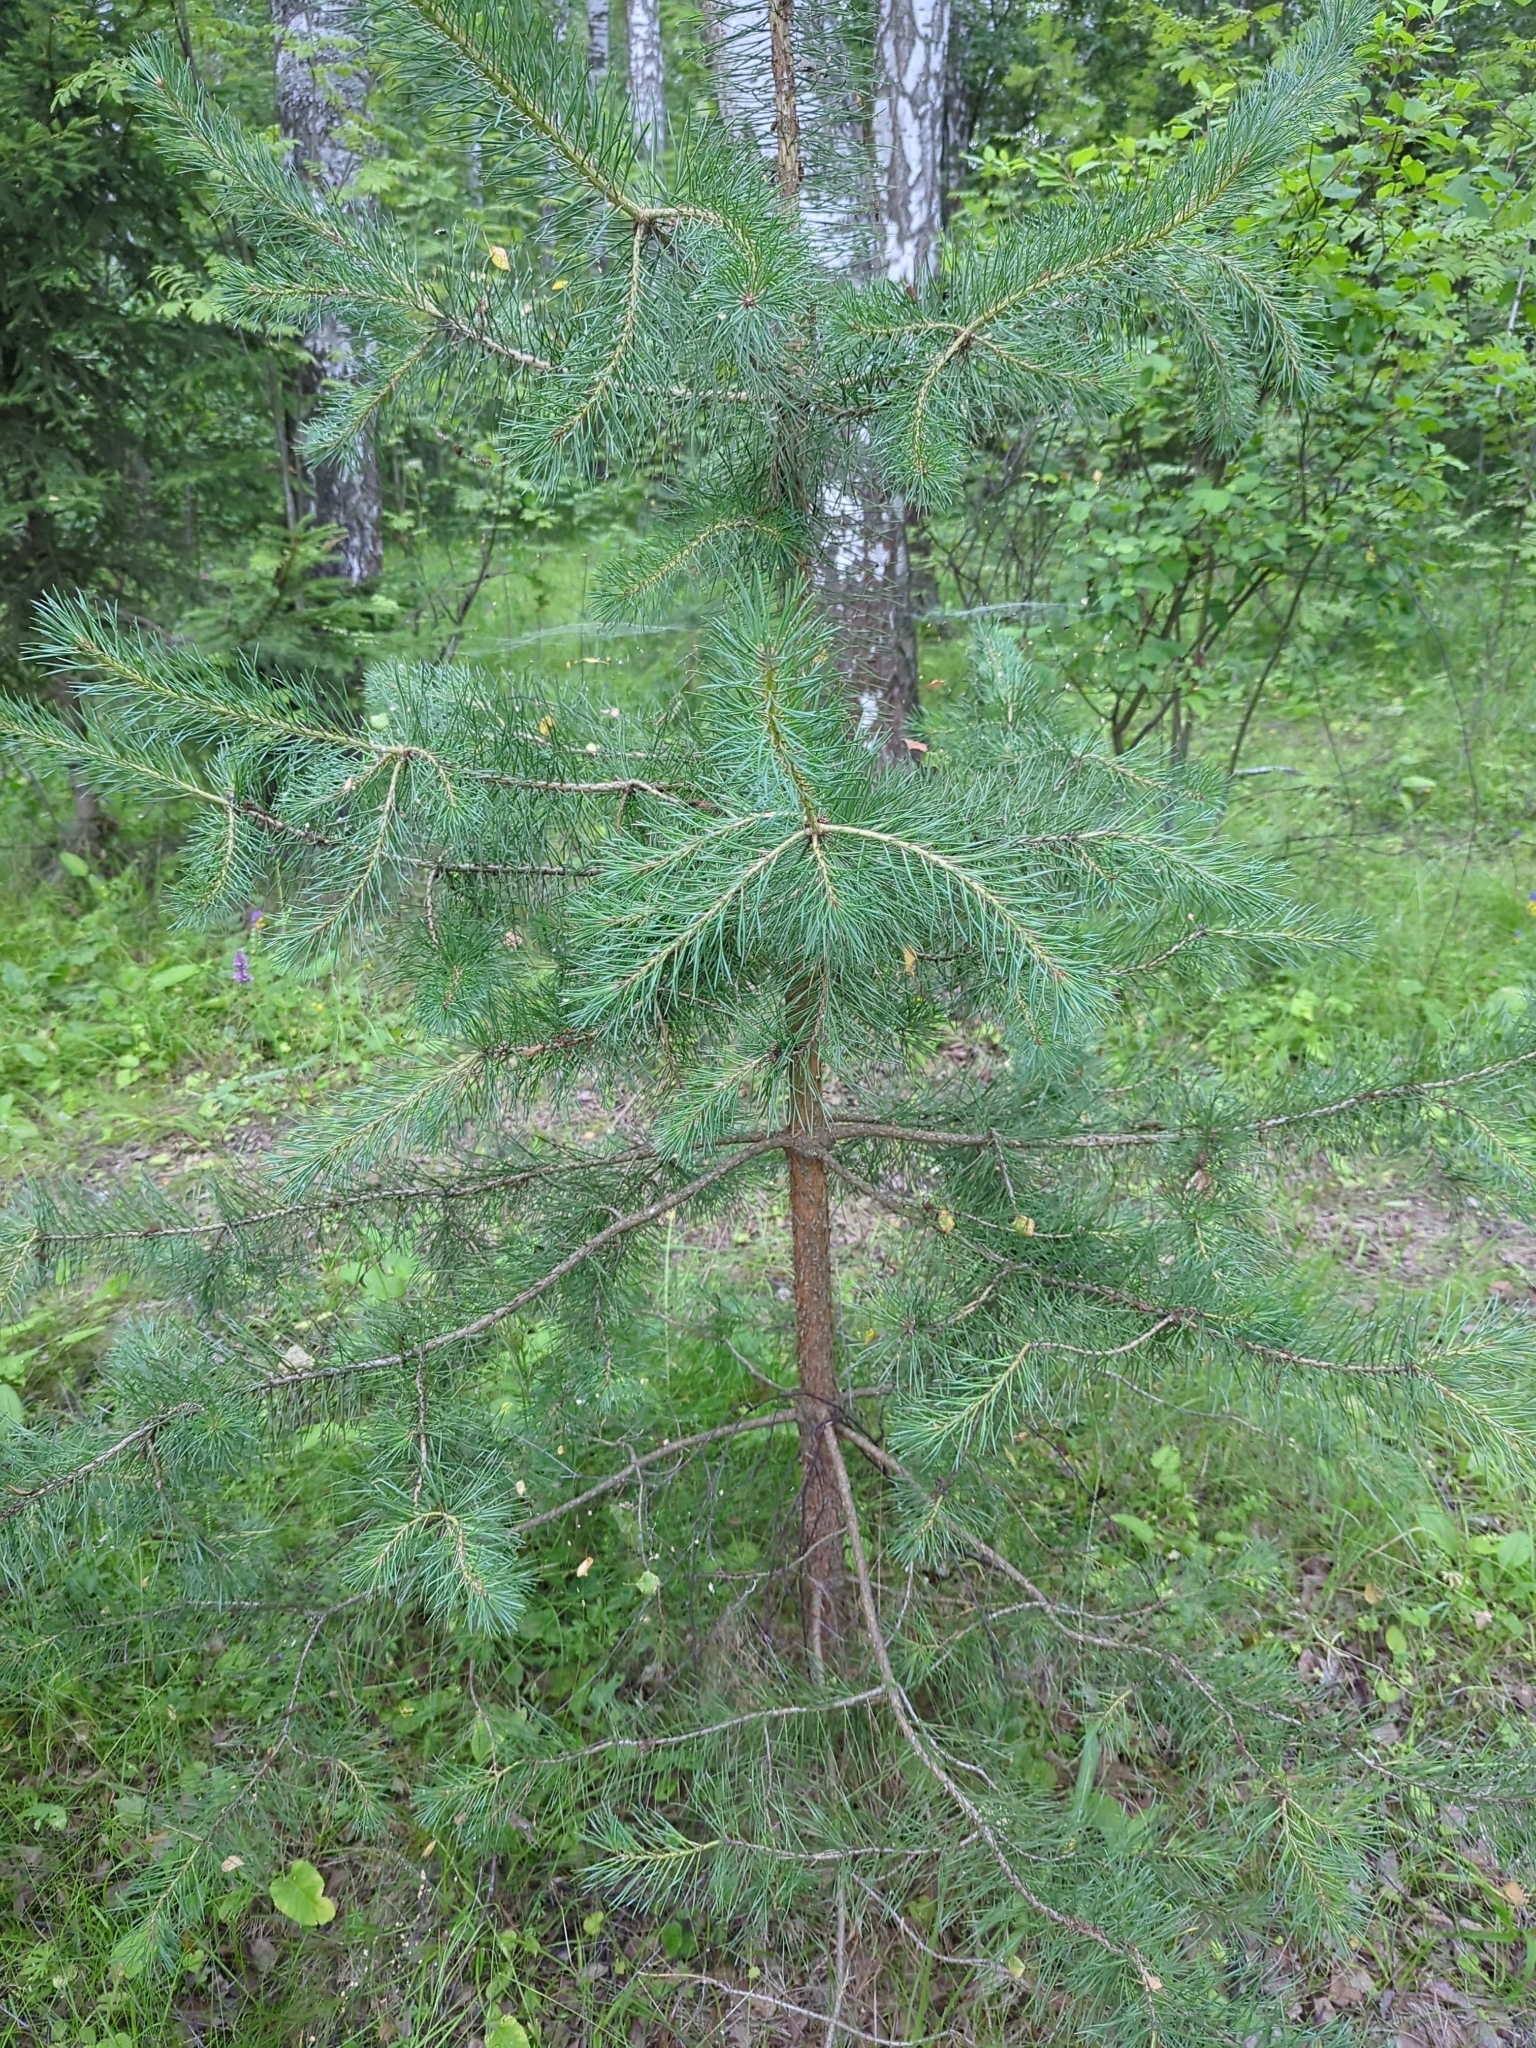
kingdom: Plantae
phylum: Tracheophyta
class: Pinopsida
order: Pinales
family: Pinaceae
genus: Pinus
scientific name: Pinus sylvestris
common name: Scots pine
